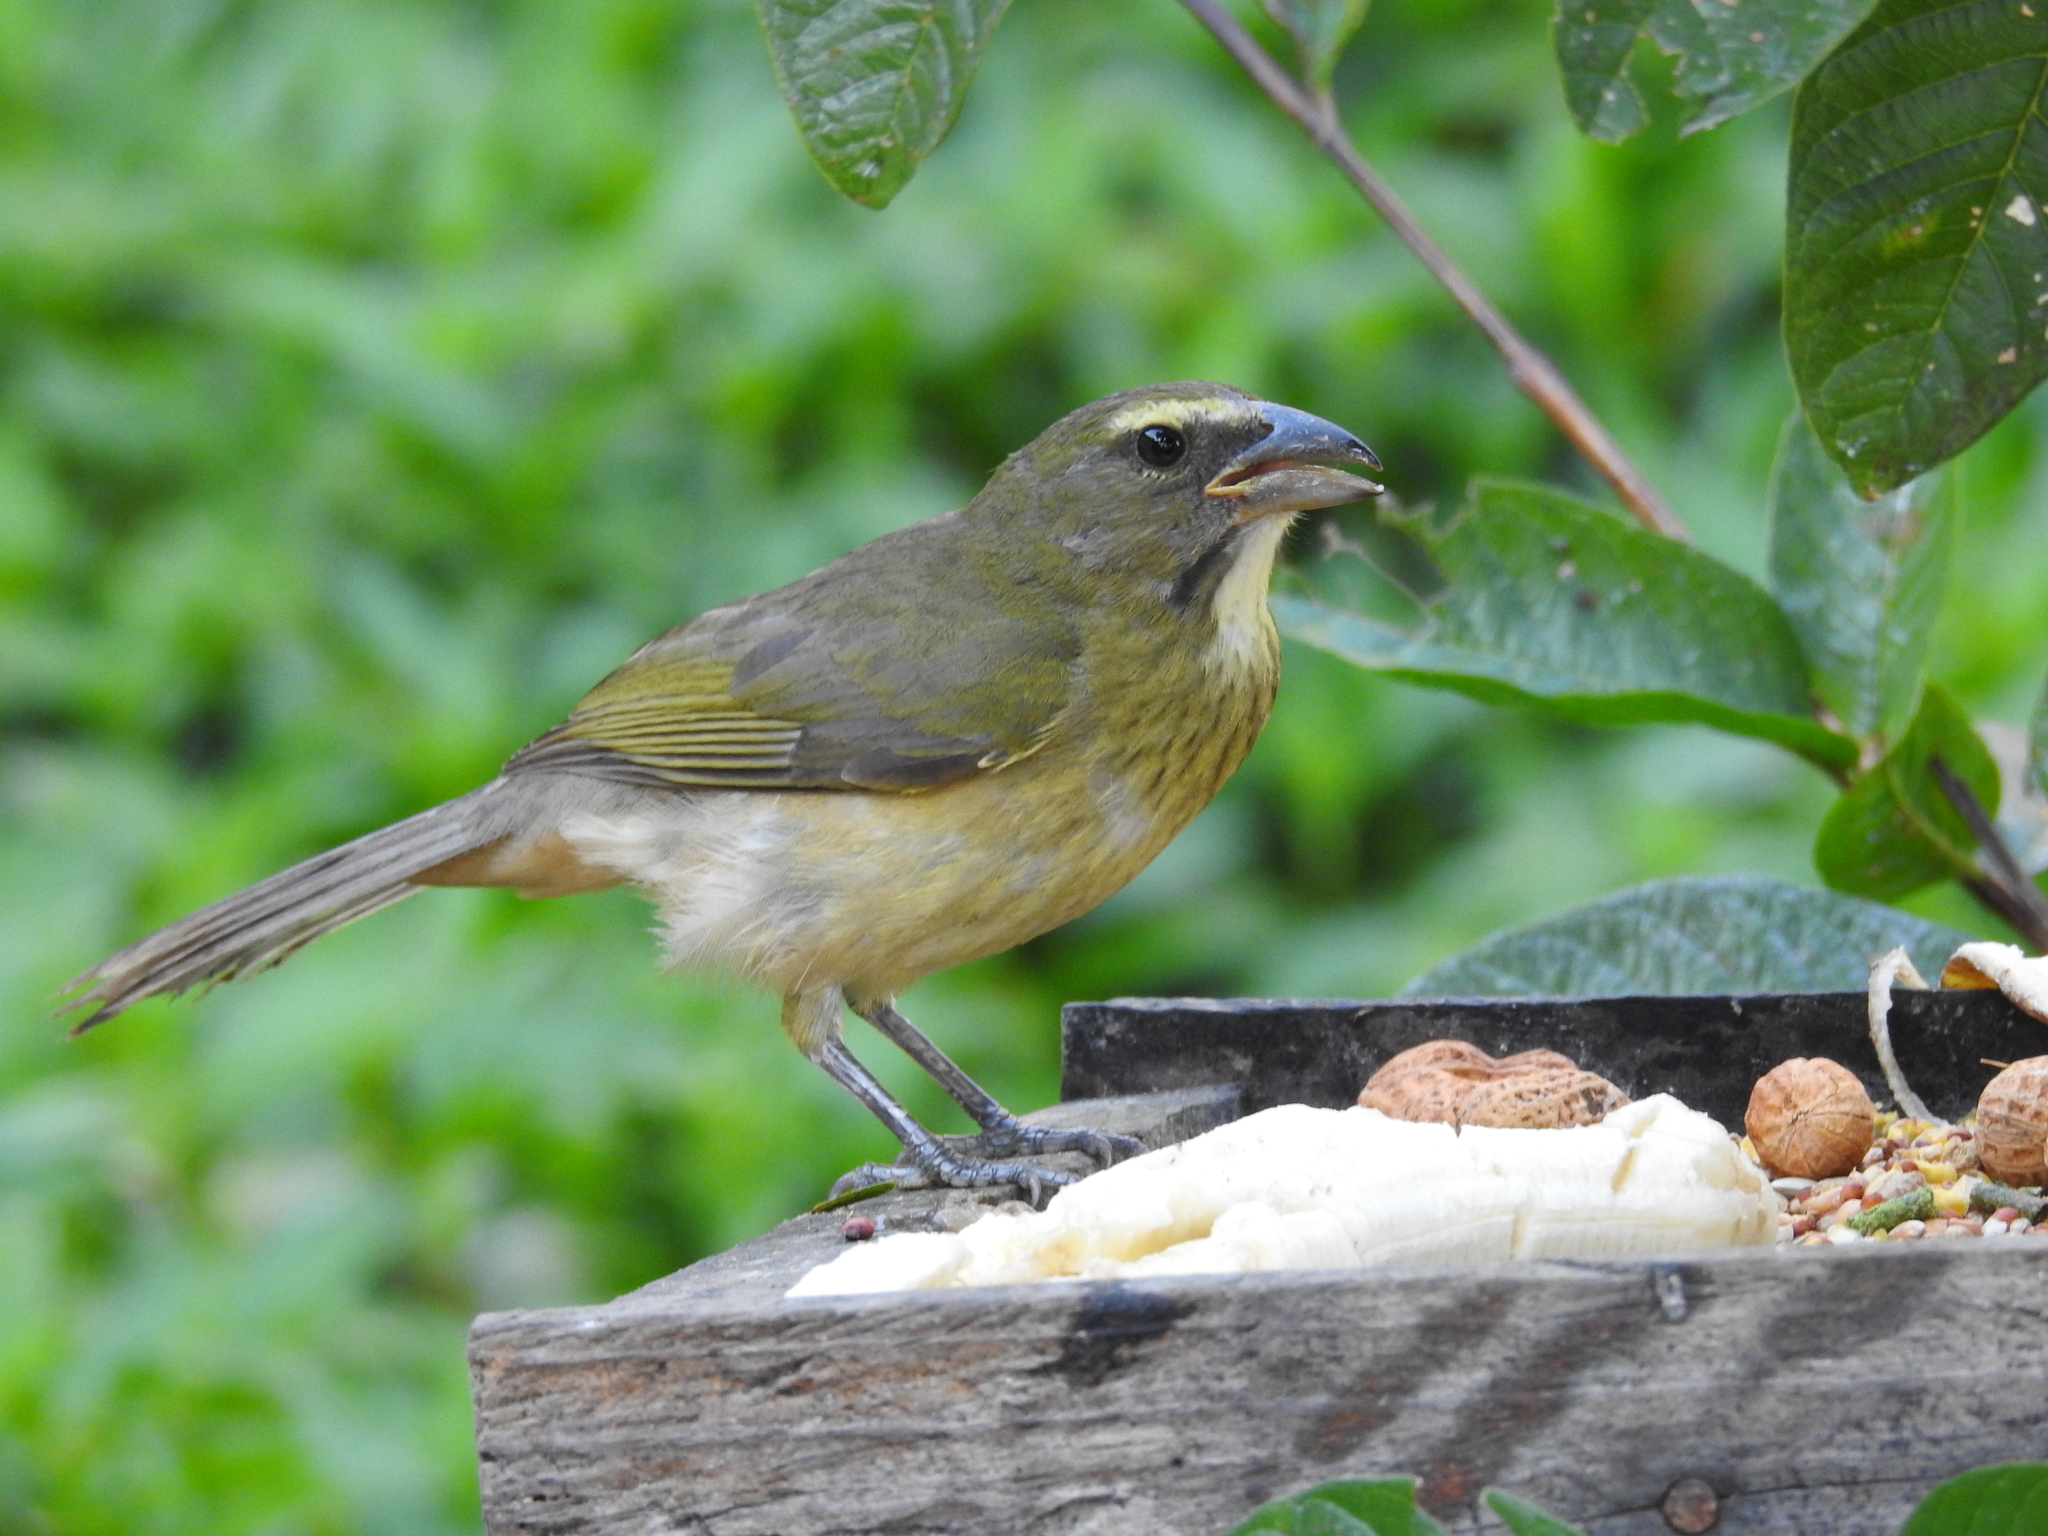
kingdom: Animalia
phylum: Chordata
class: Aves
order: Passeriformes
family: Thraupidae
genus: Saltator
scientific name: Saltator grandis
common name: Cinnamon-bellied saltator
